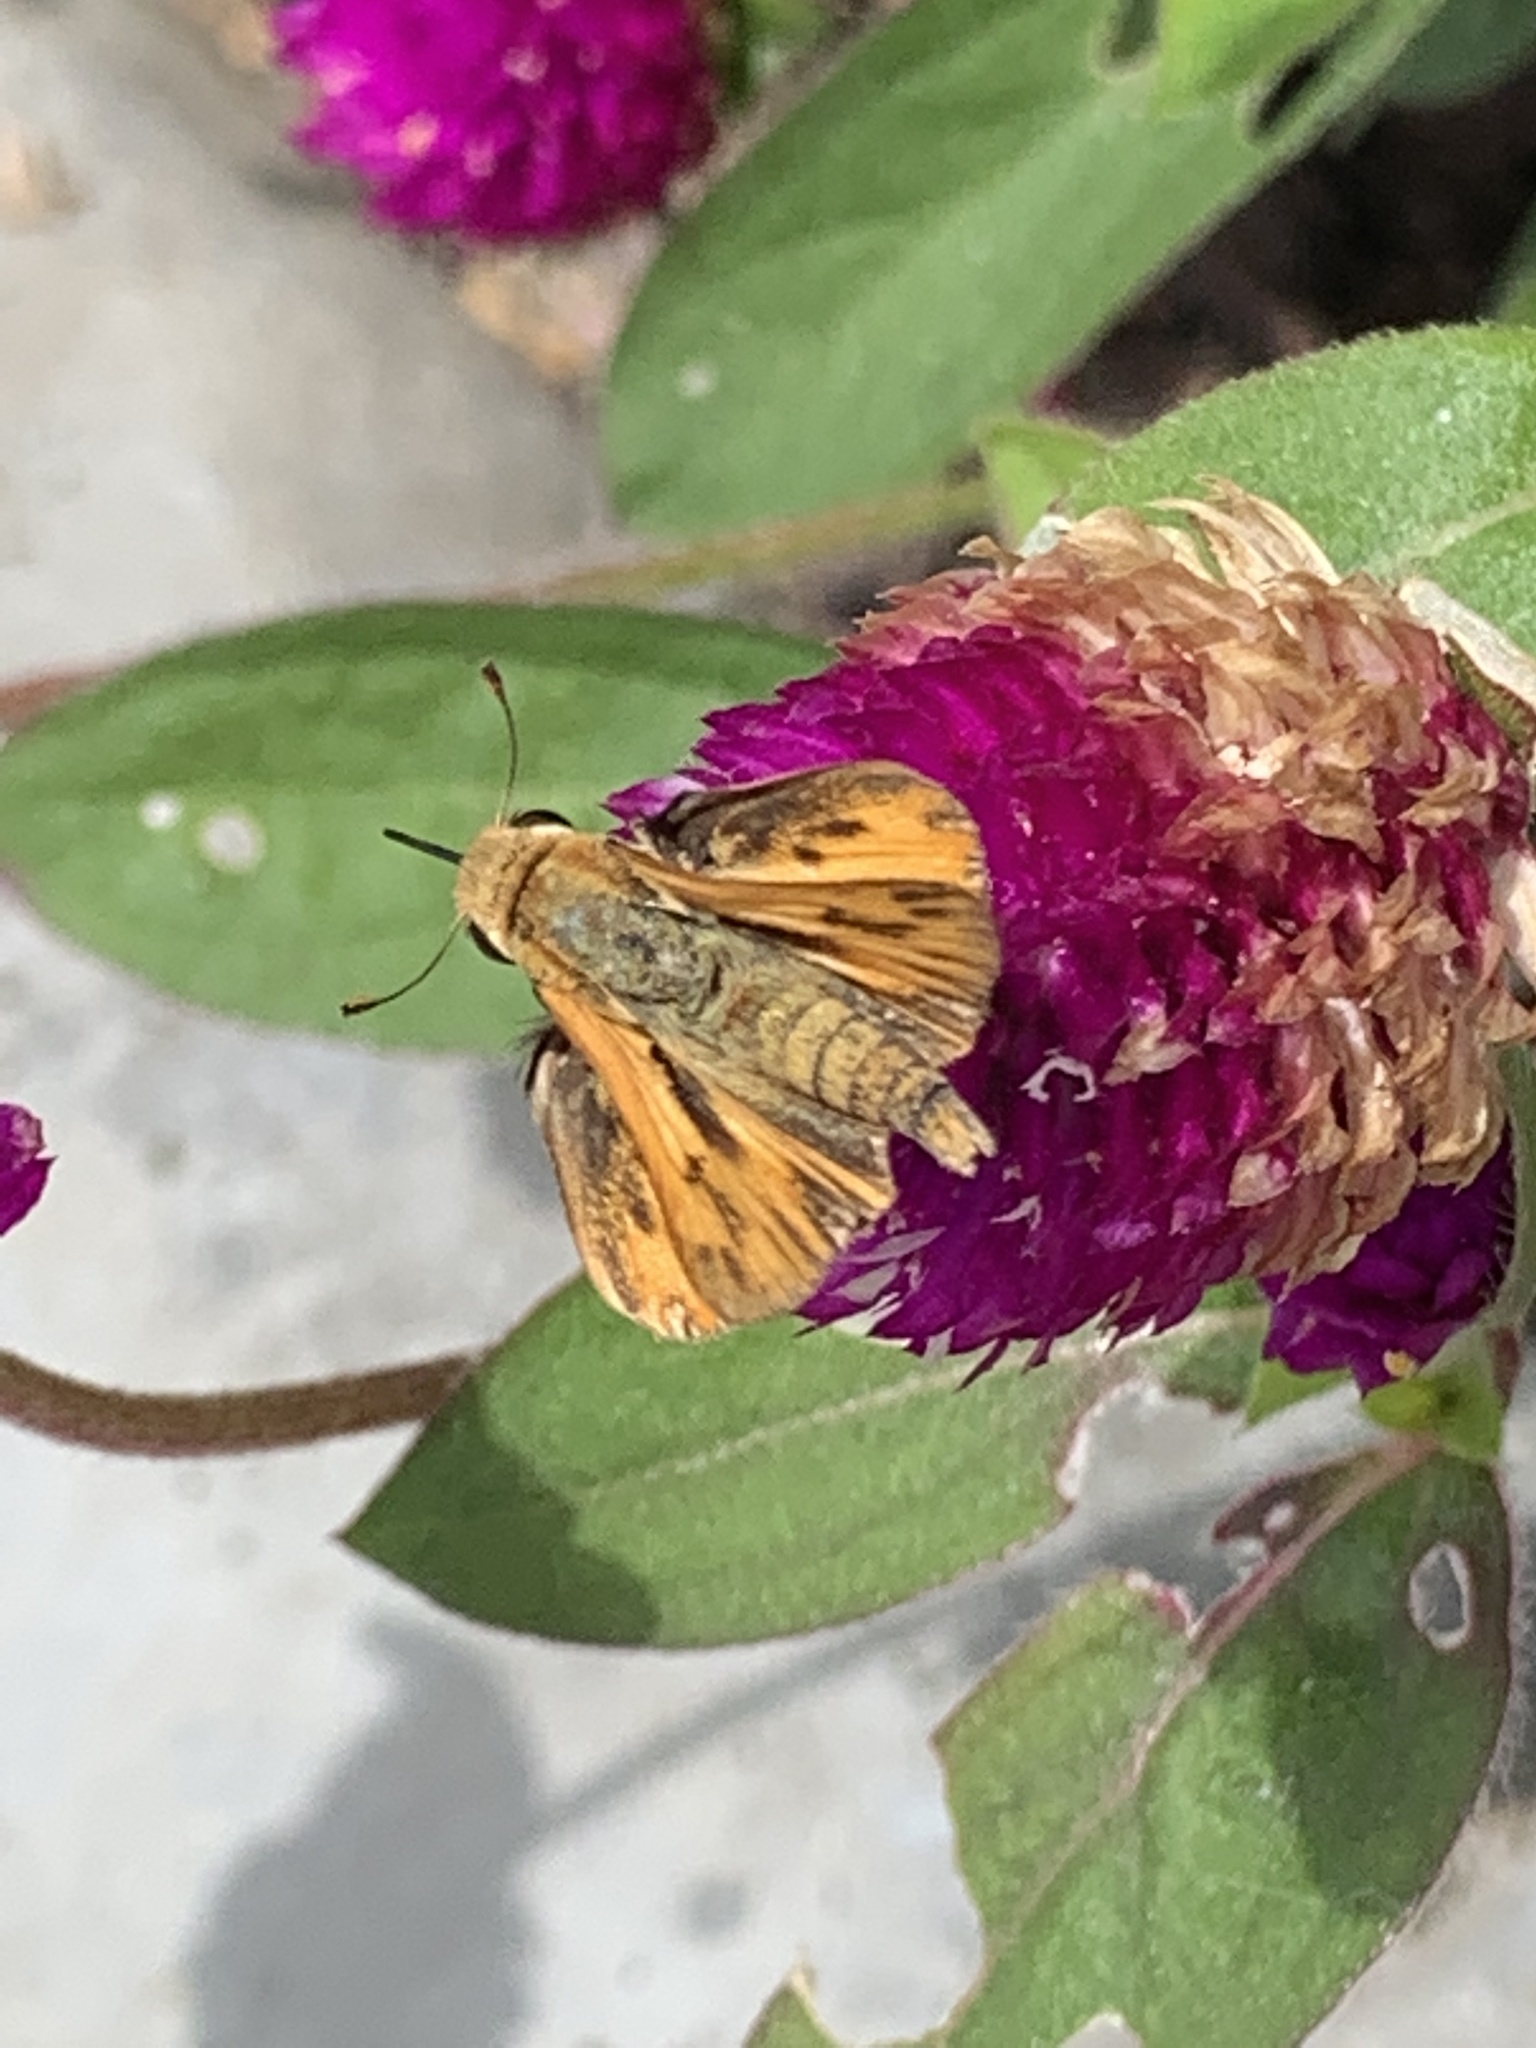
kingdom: Animalia
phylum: Arthropoda
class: Insecta
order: Lepidoptera
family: Hesperiidae
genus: Hylephila
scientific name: Hylephila phyleus
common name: Fiery skipper
